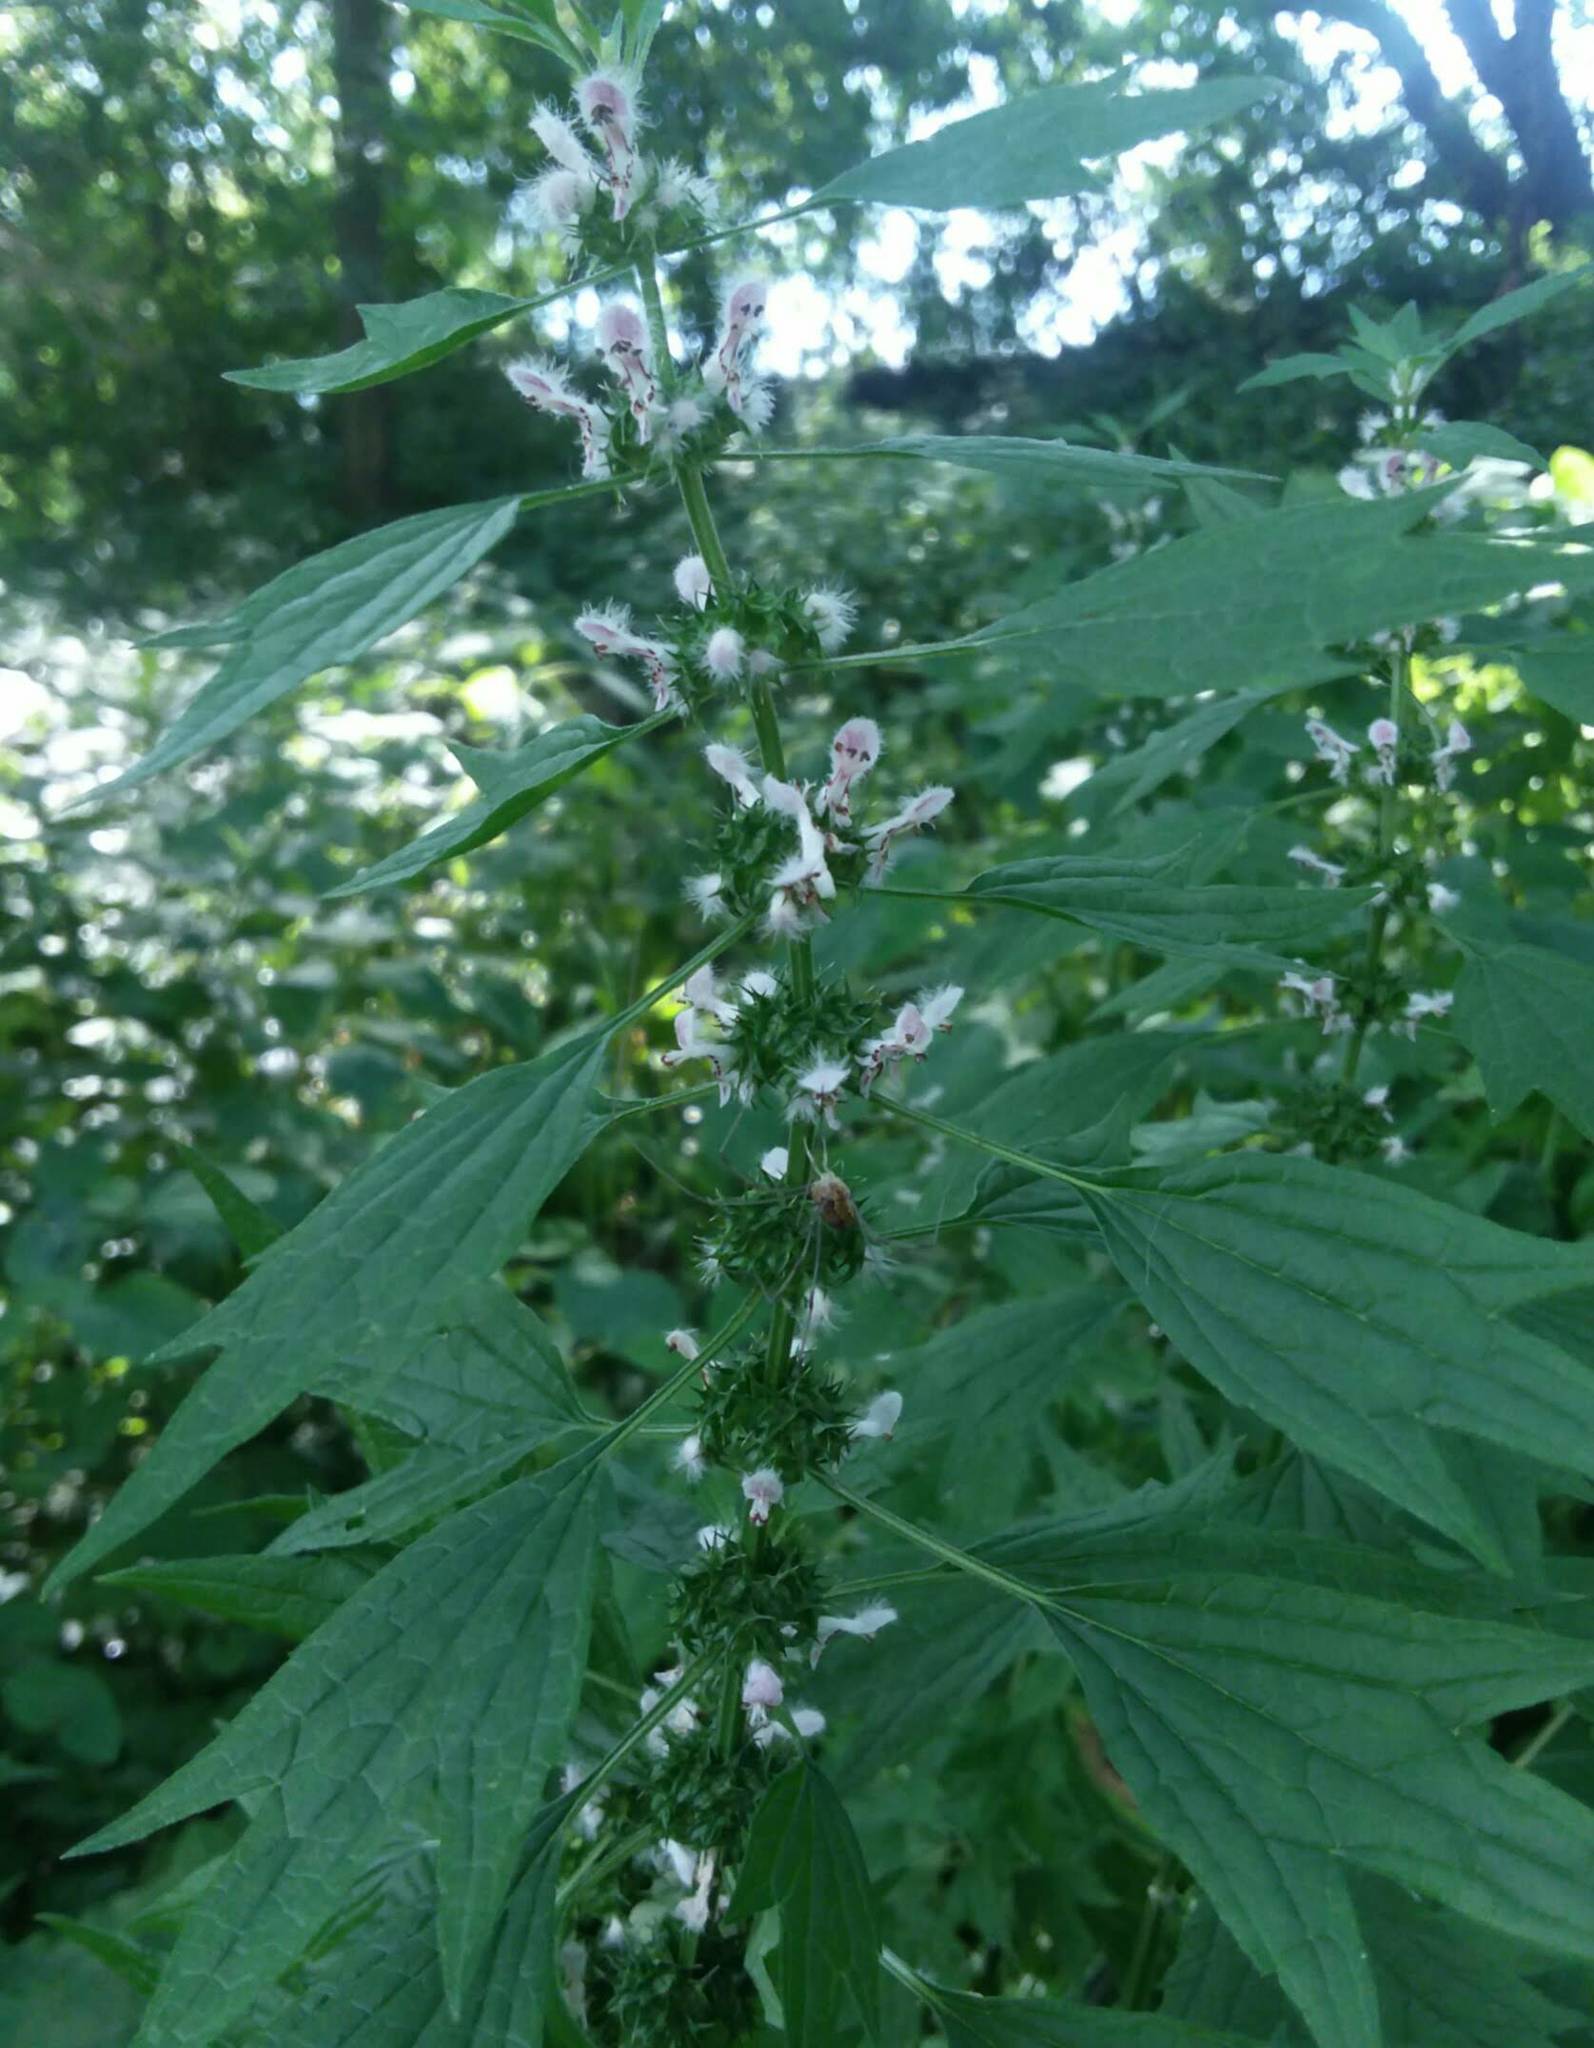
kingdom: Plantae
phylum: Tracheophyta
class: Magnoliopsida
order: Lamiales
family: Lamiaceae
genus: Leonurus
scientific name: Leonurus cardiaca
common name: Motherwort
